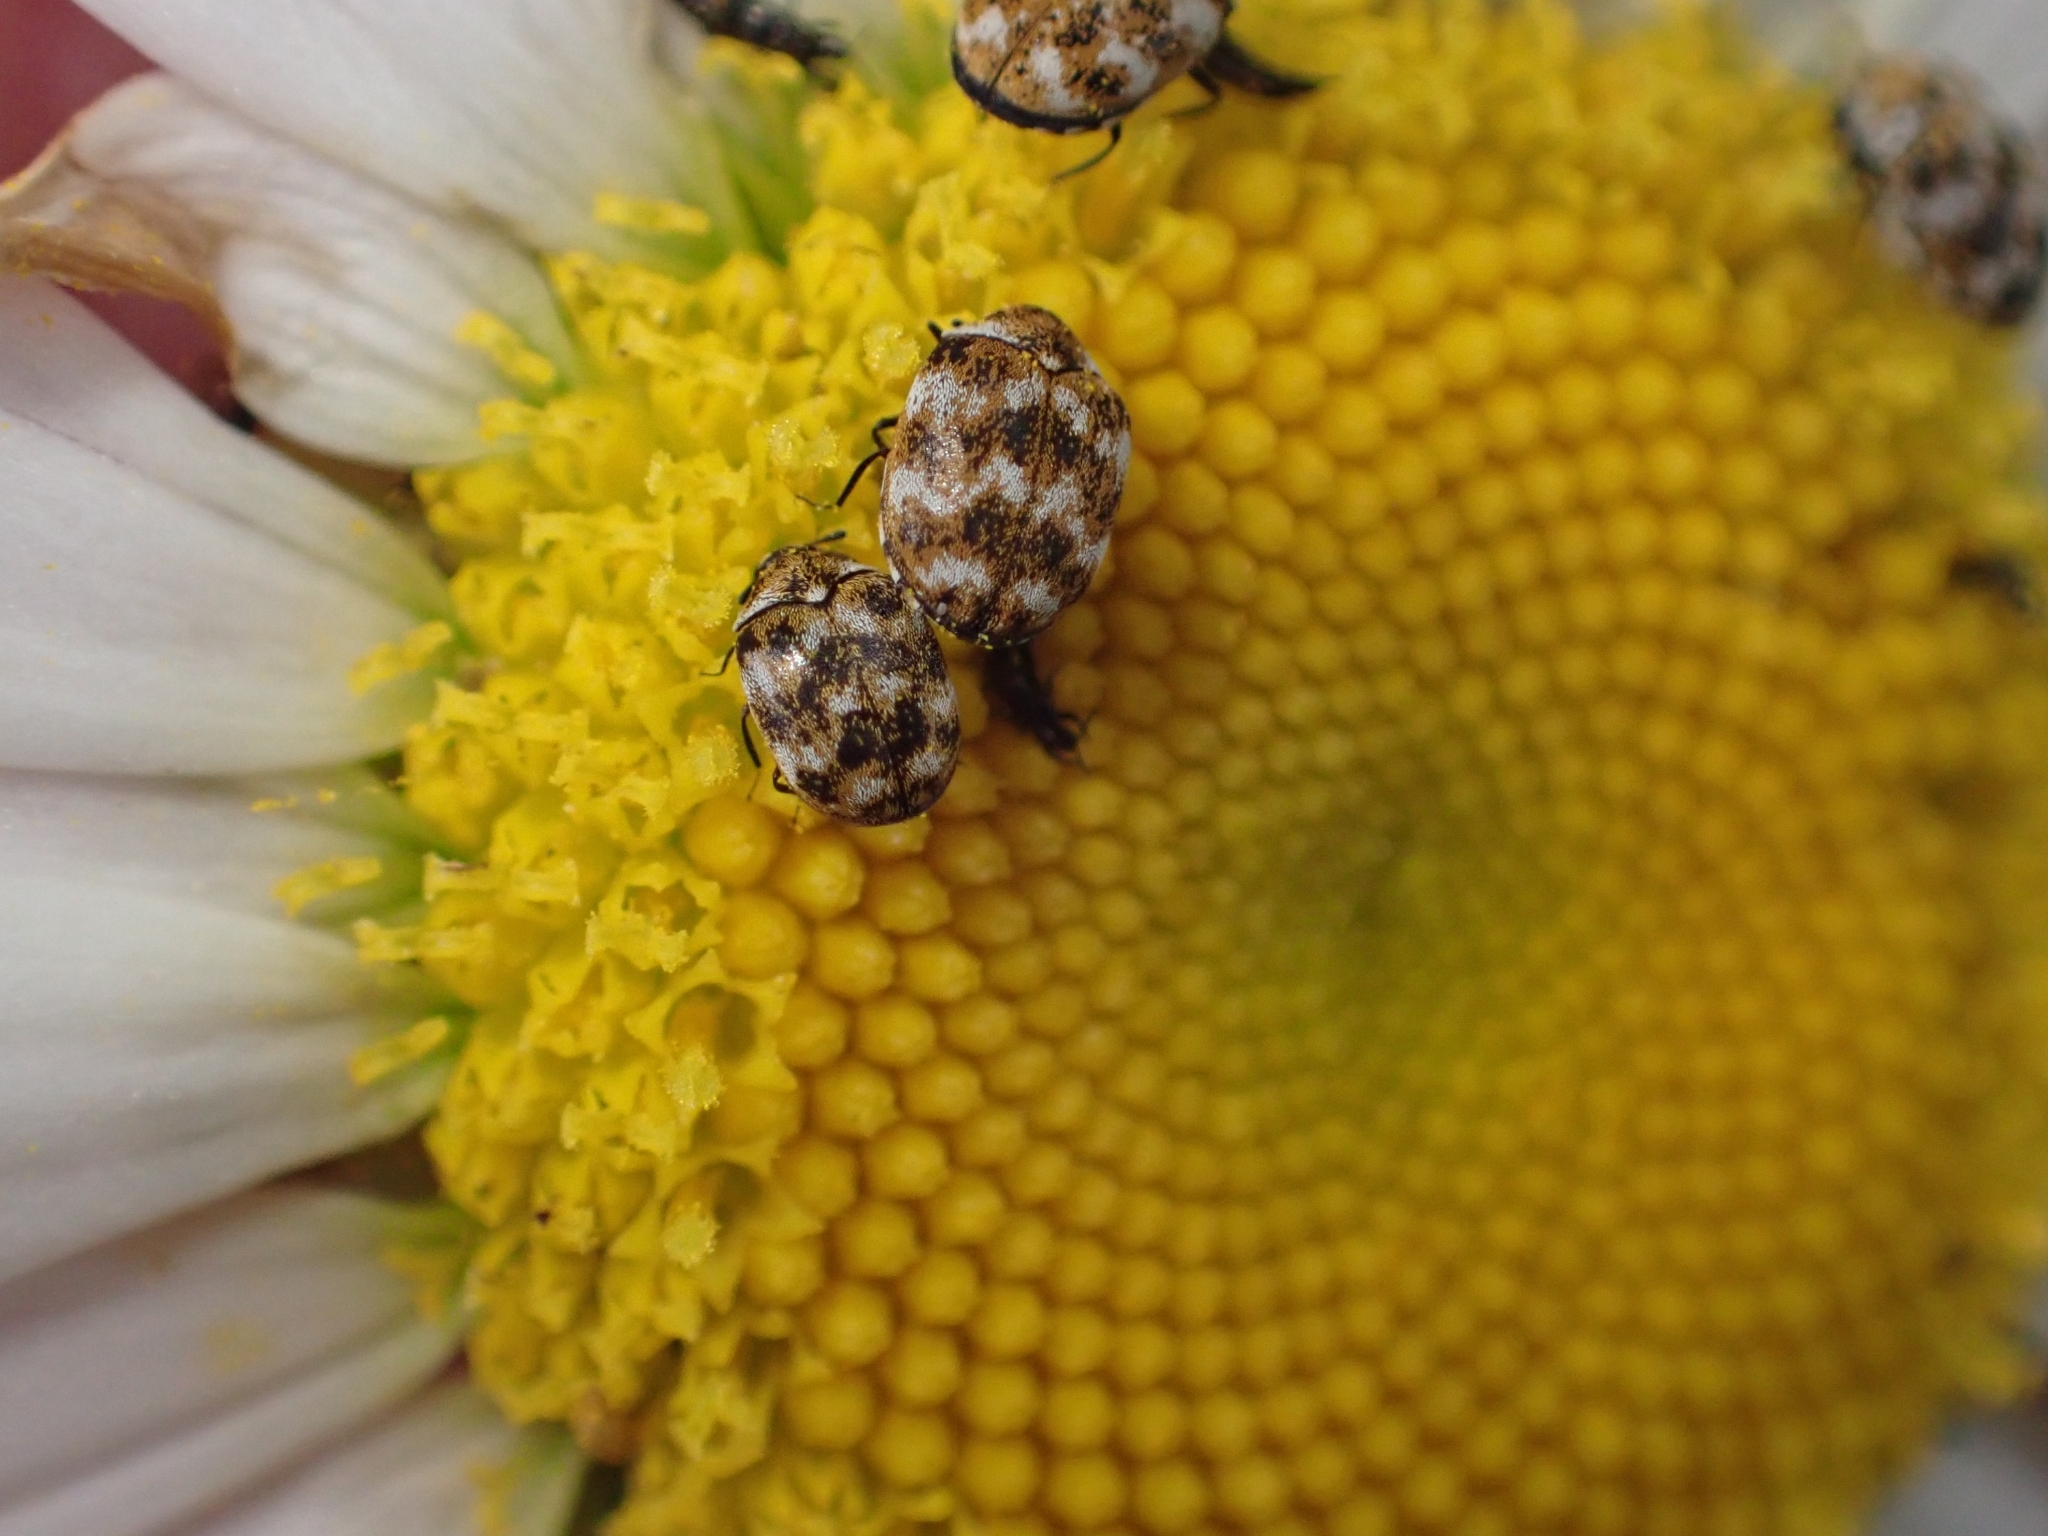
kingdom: Animalia
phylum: Arthropoda
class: Insecta
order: Coleoptera
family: Dermestidae
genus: Anthrenus
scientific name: Anthrenus verbasci
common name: Varied carpet beetle
